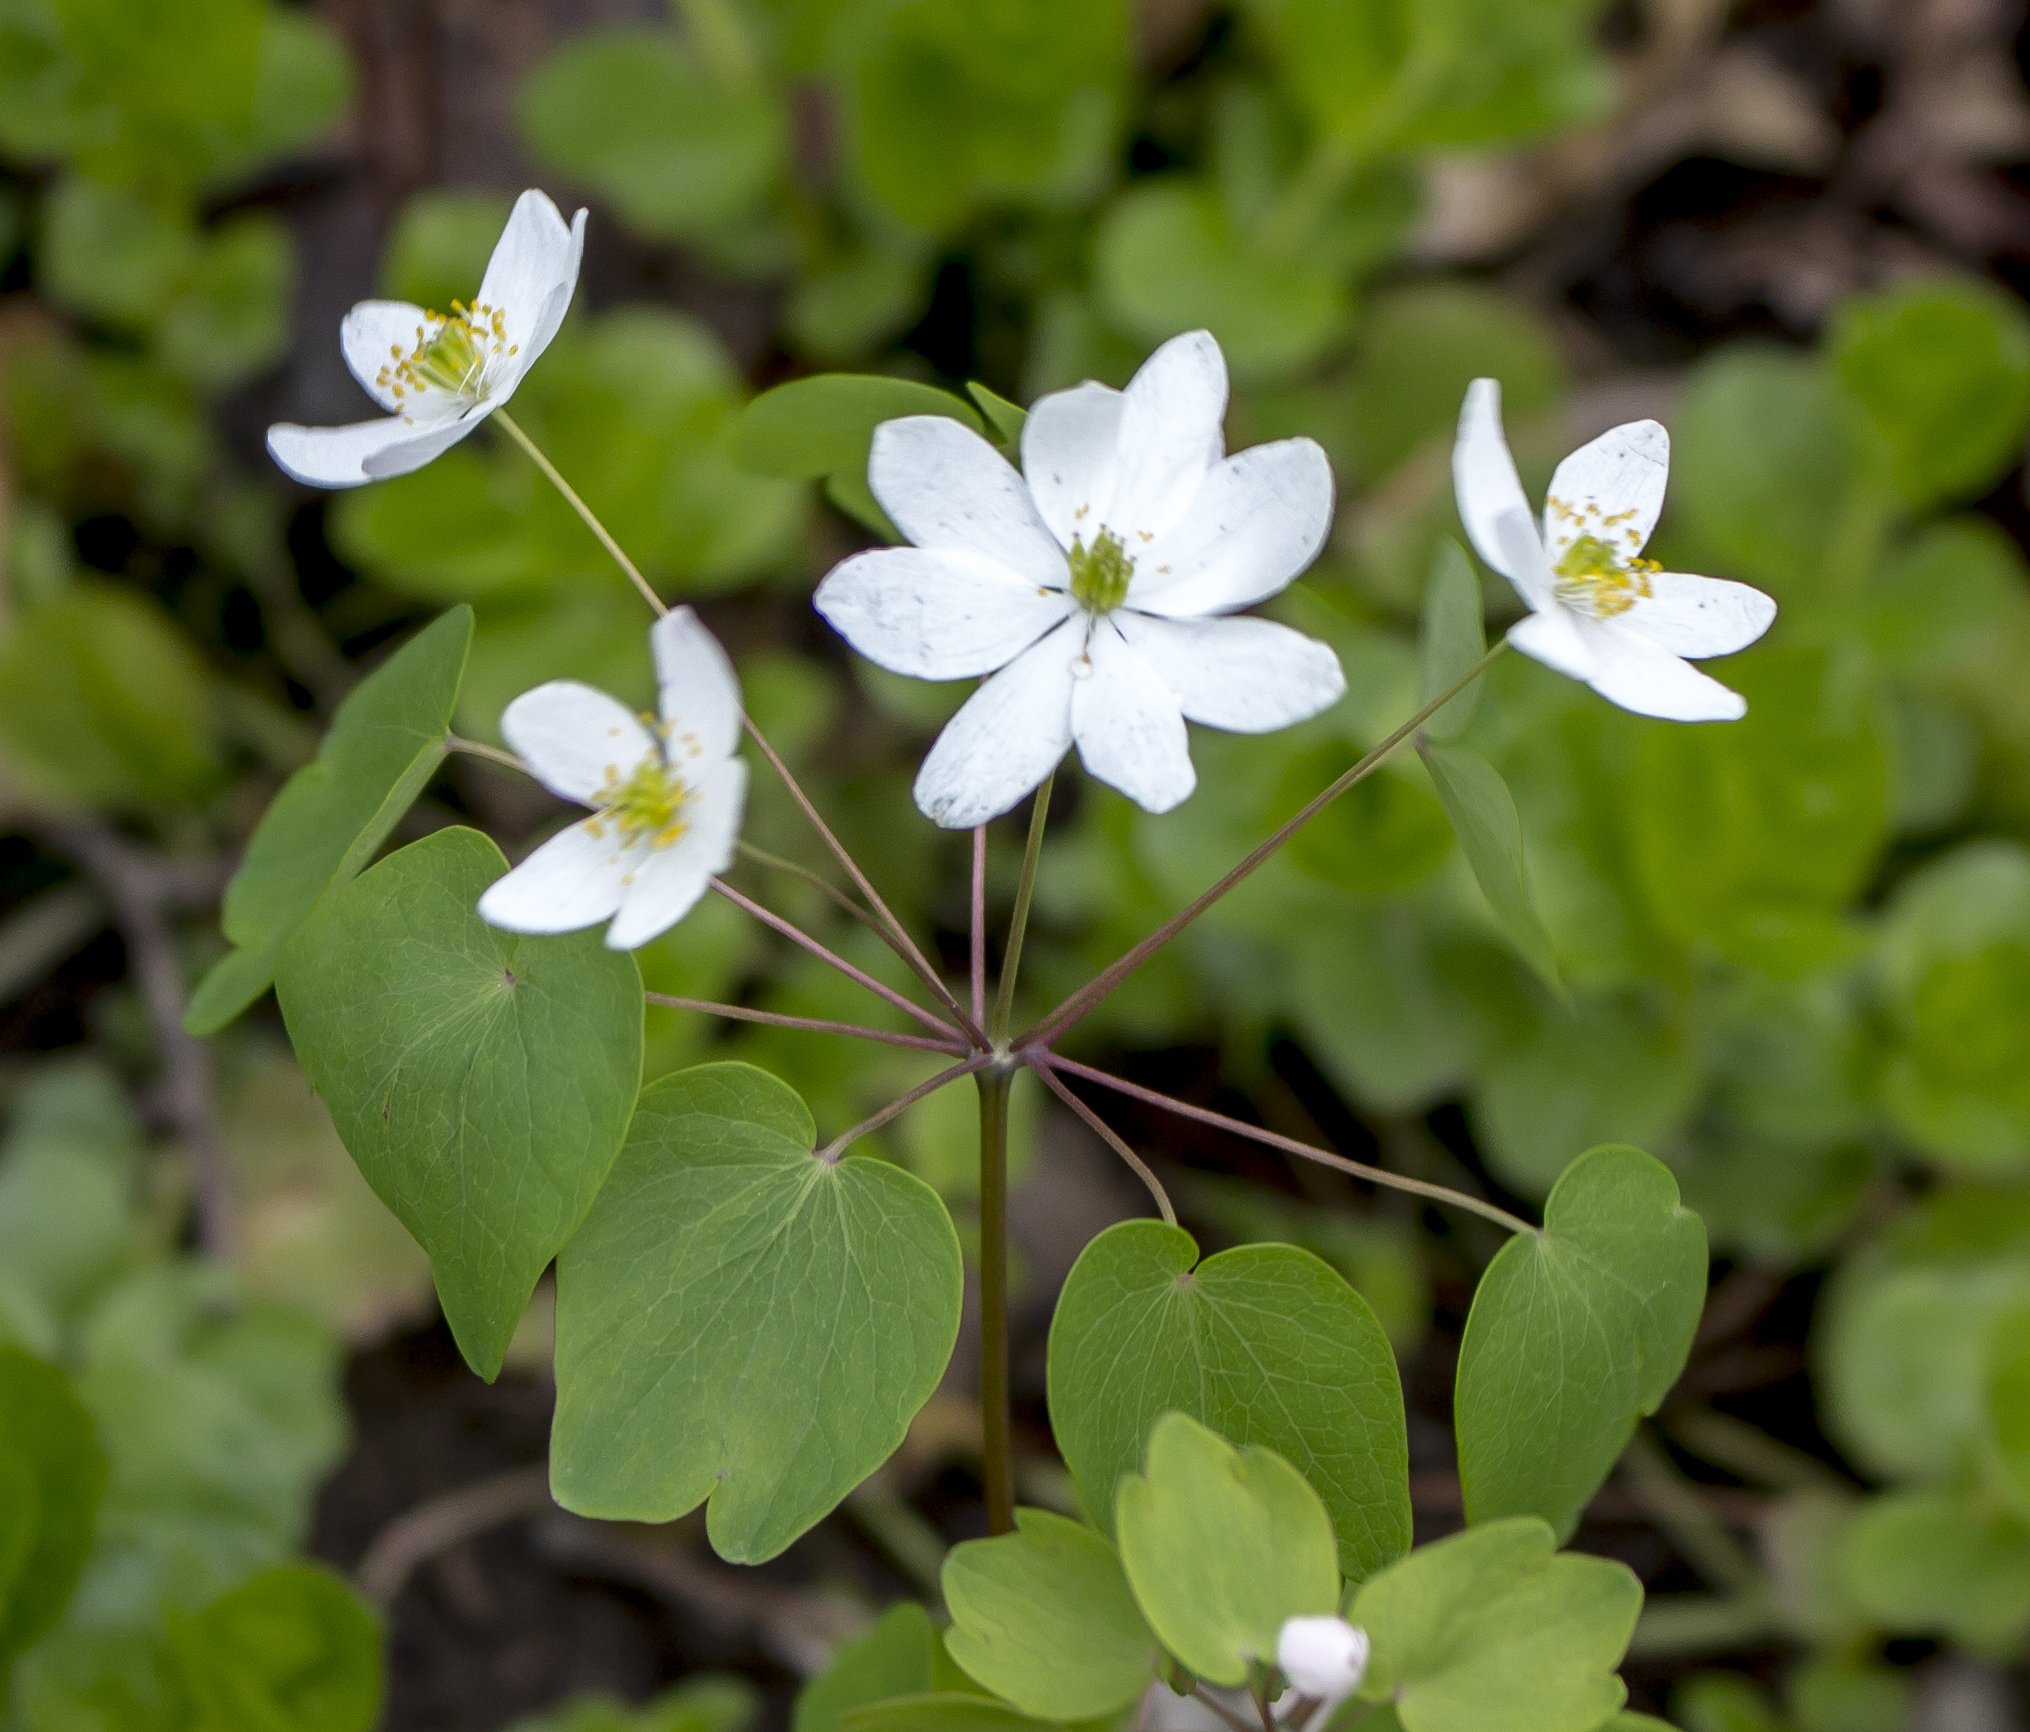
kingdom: Plantae
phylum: Tracheophyta
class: Magnoliopsida
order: Ranunculales
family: Ranunculaceae
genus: Thalictrum
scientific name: Thalictrum thalictroides
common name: Rue-anemone
